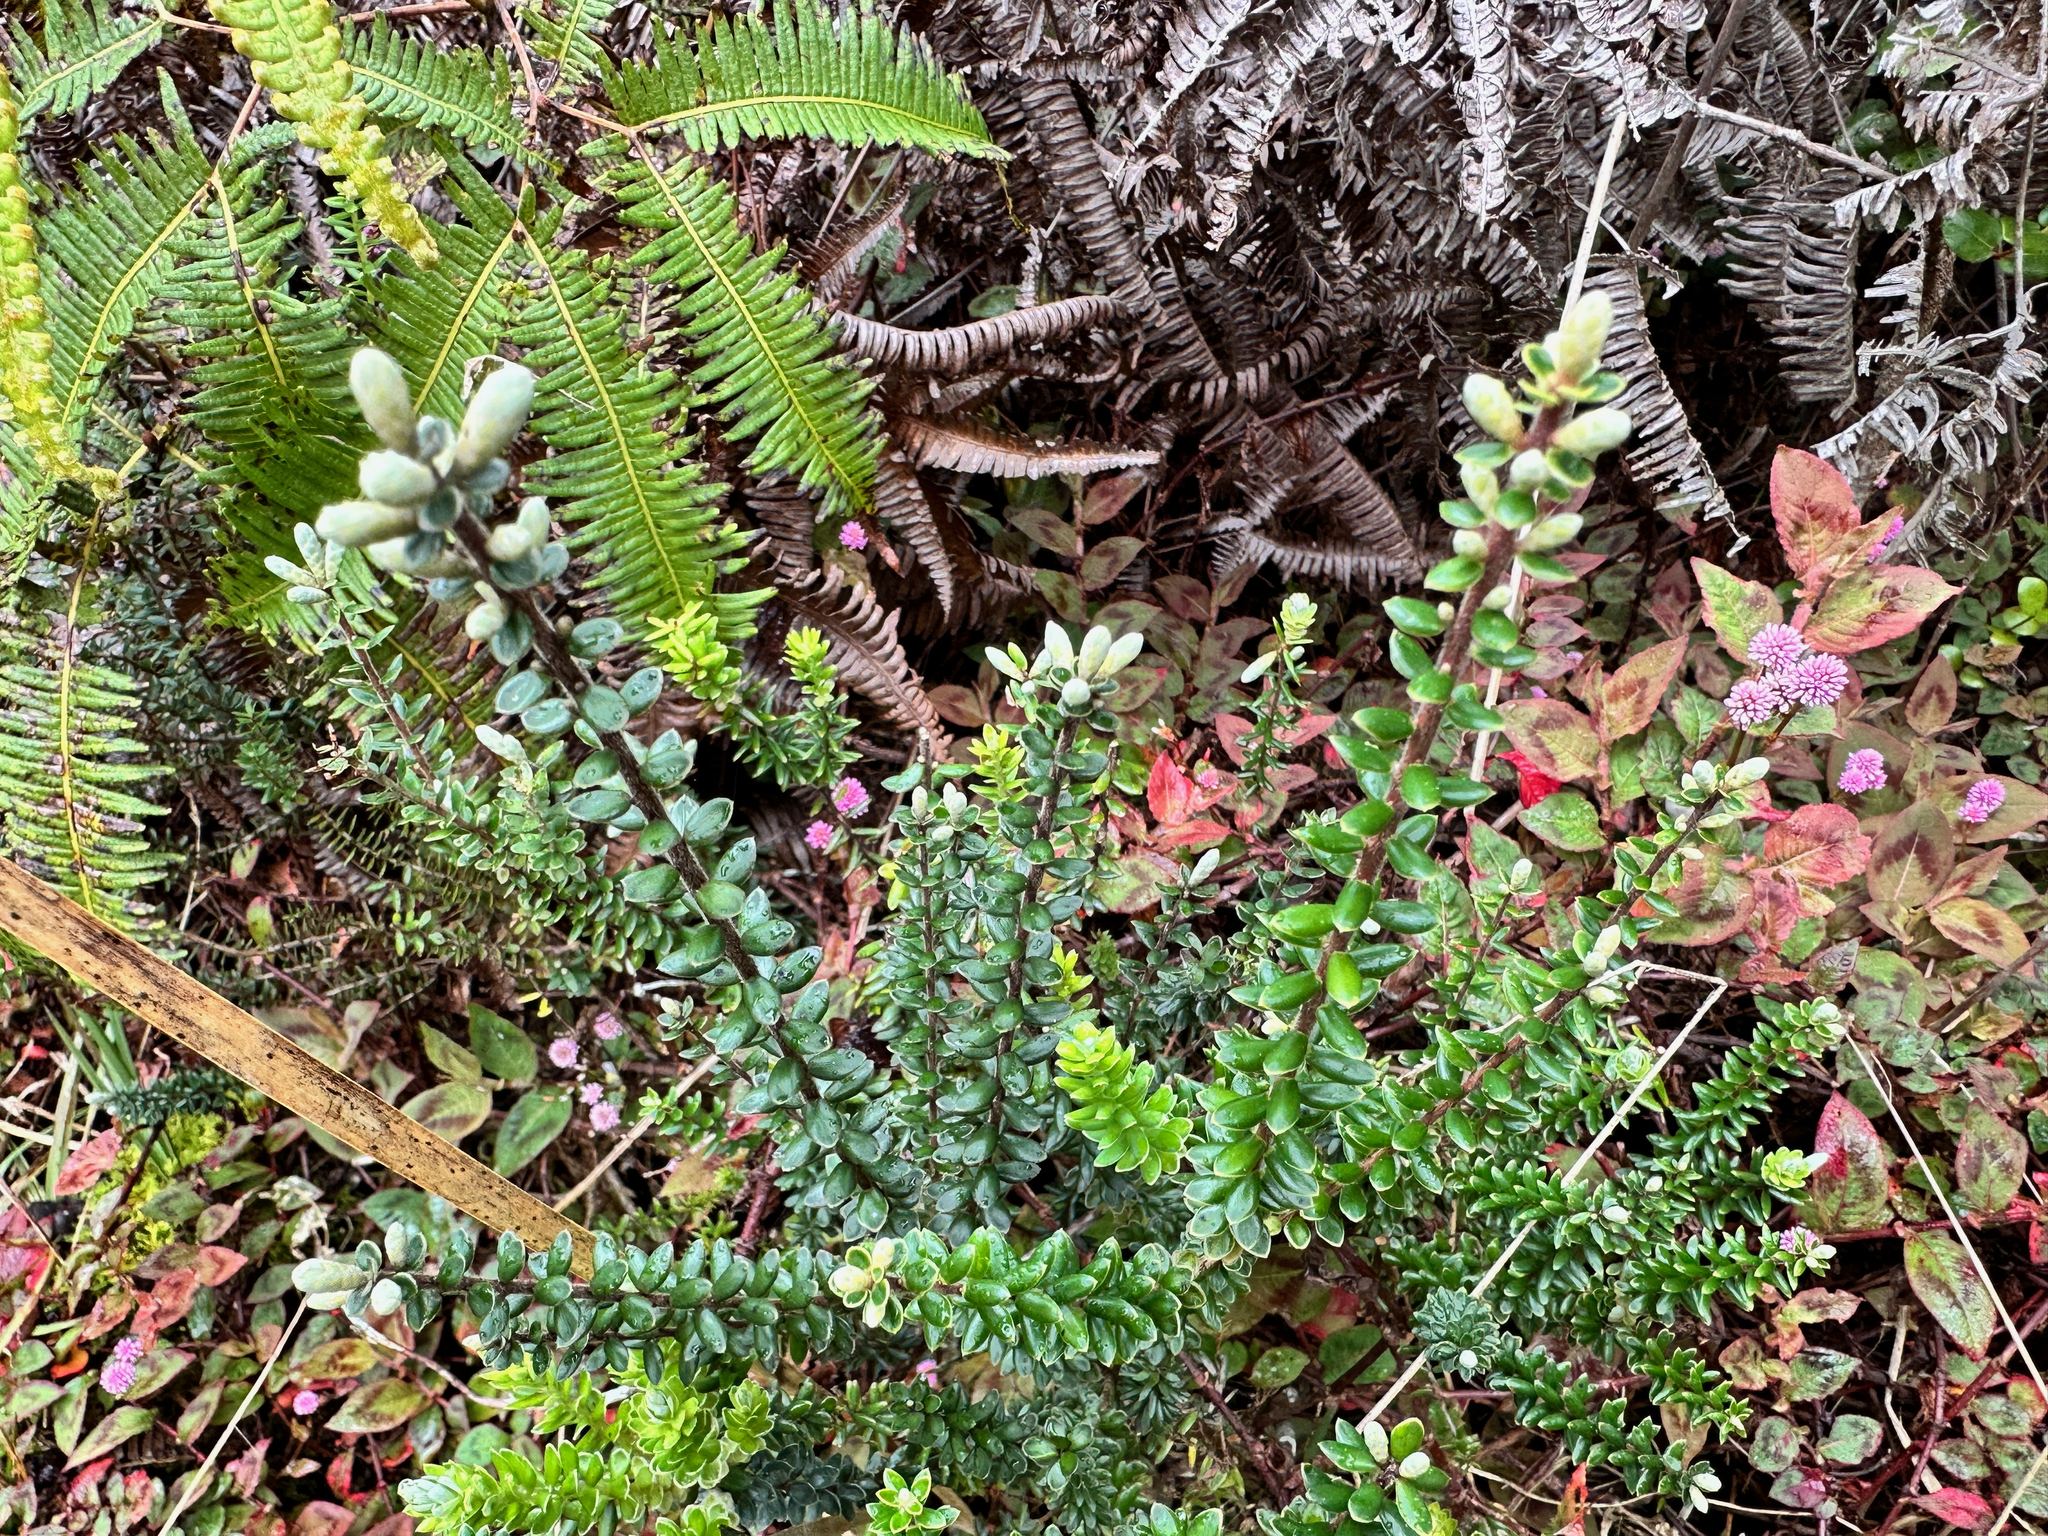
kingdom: Plantae
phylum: Tracheophyta
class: Magnoliopsida
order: Ericales
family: Ericaceae
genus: Leptecophylla
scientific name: Leptecophylla tameiameiae
